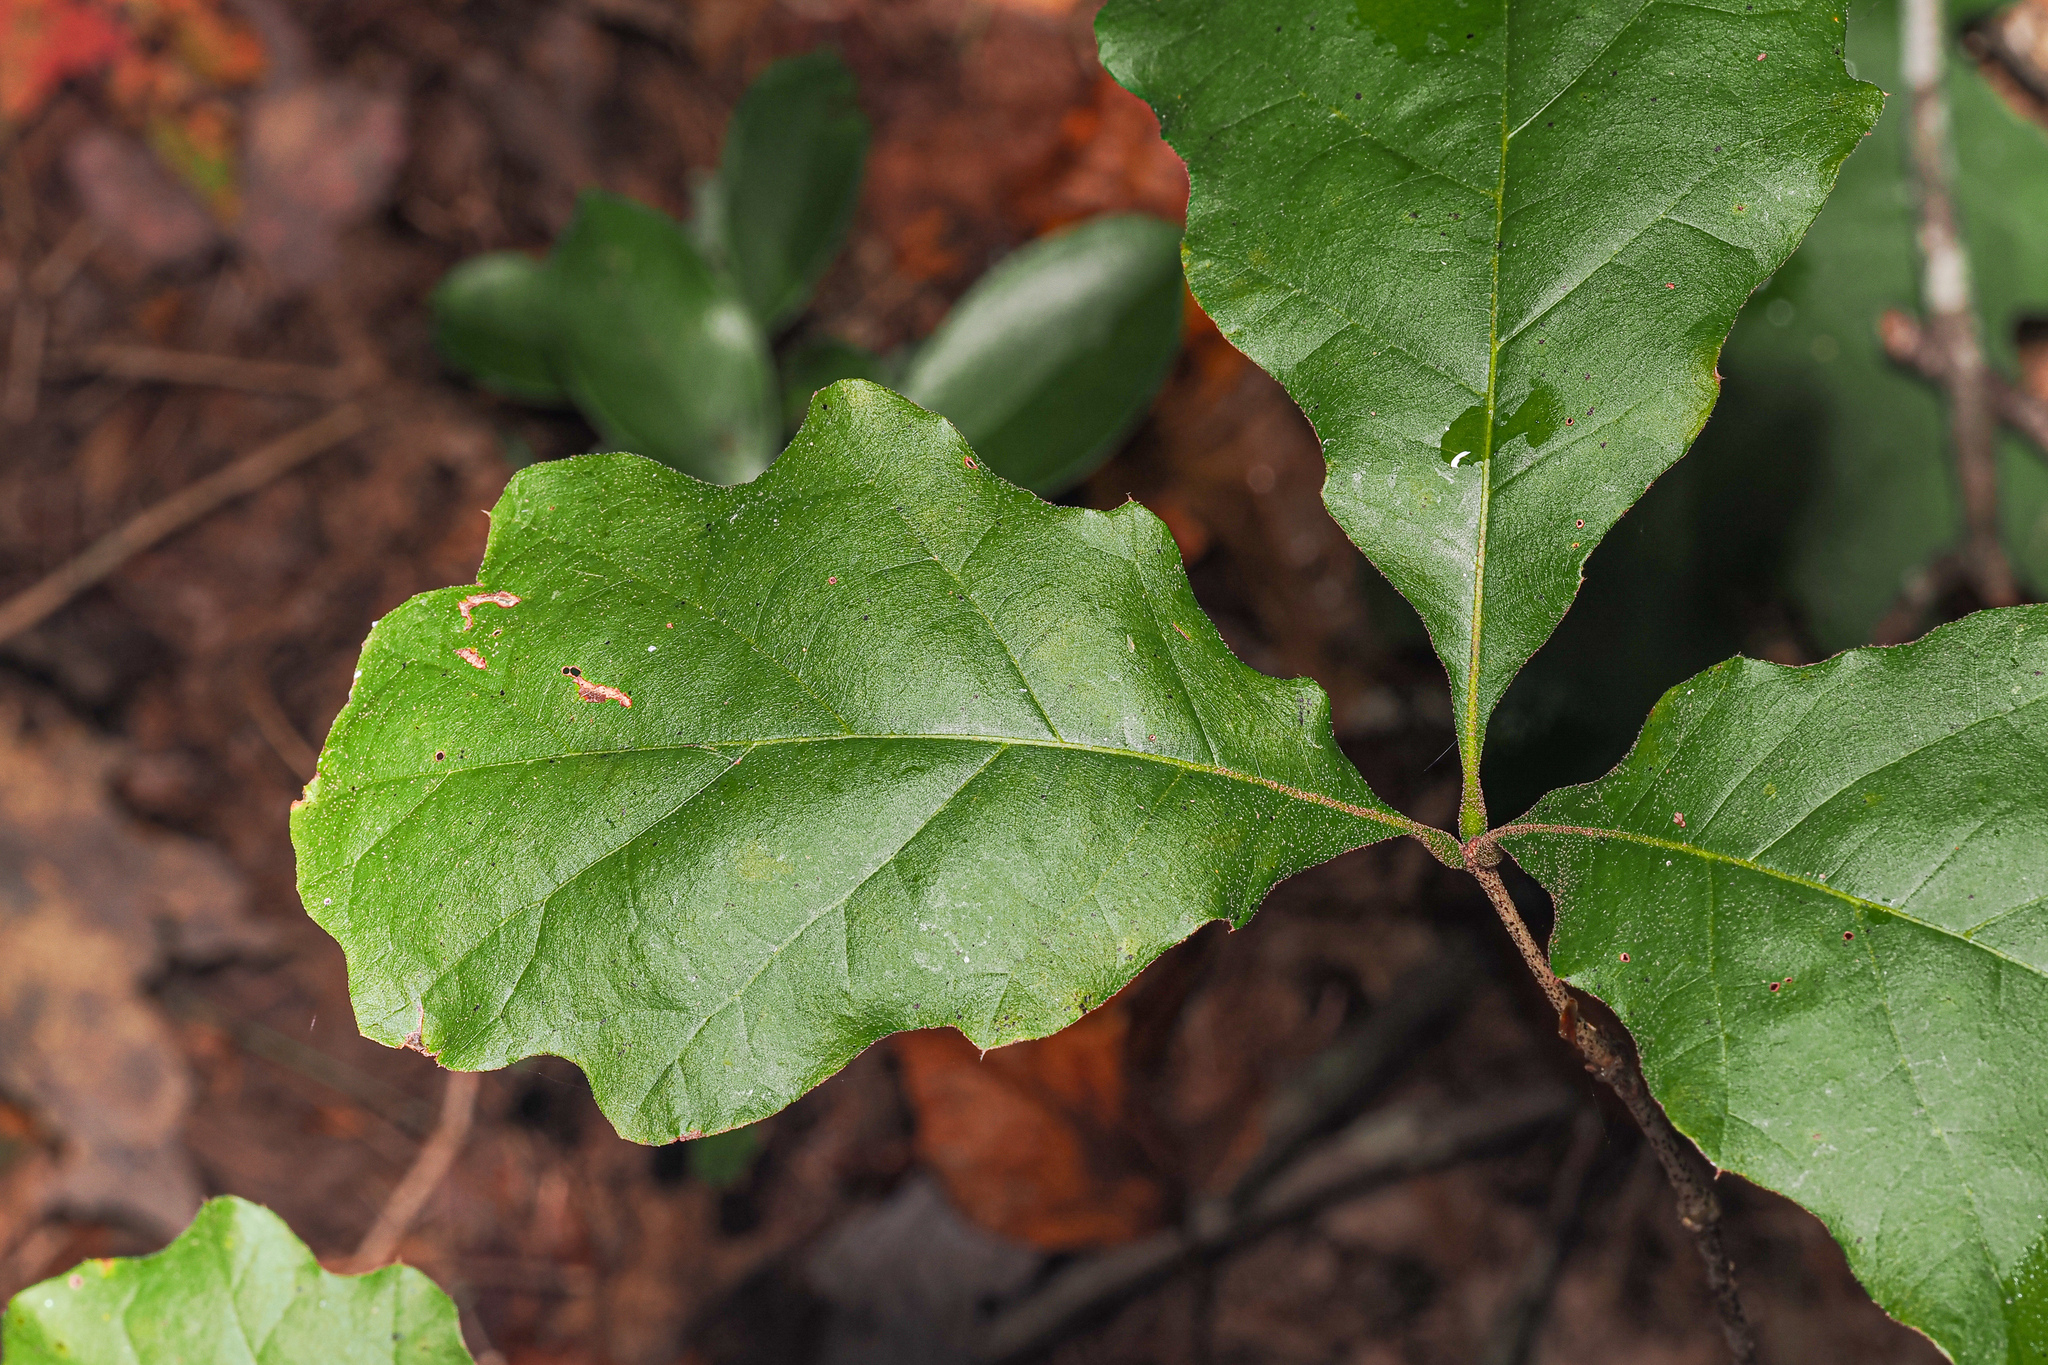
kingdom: Animalia
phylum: Arthropoda
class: Insecta
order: Hymenoptera
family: Cynipidae
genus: Callirhytis
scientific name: Callirhytis
